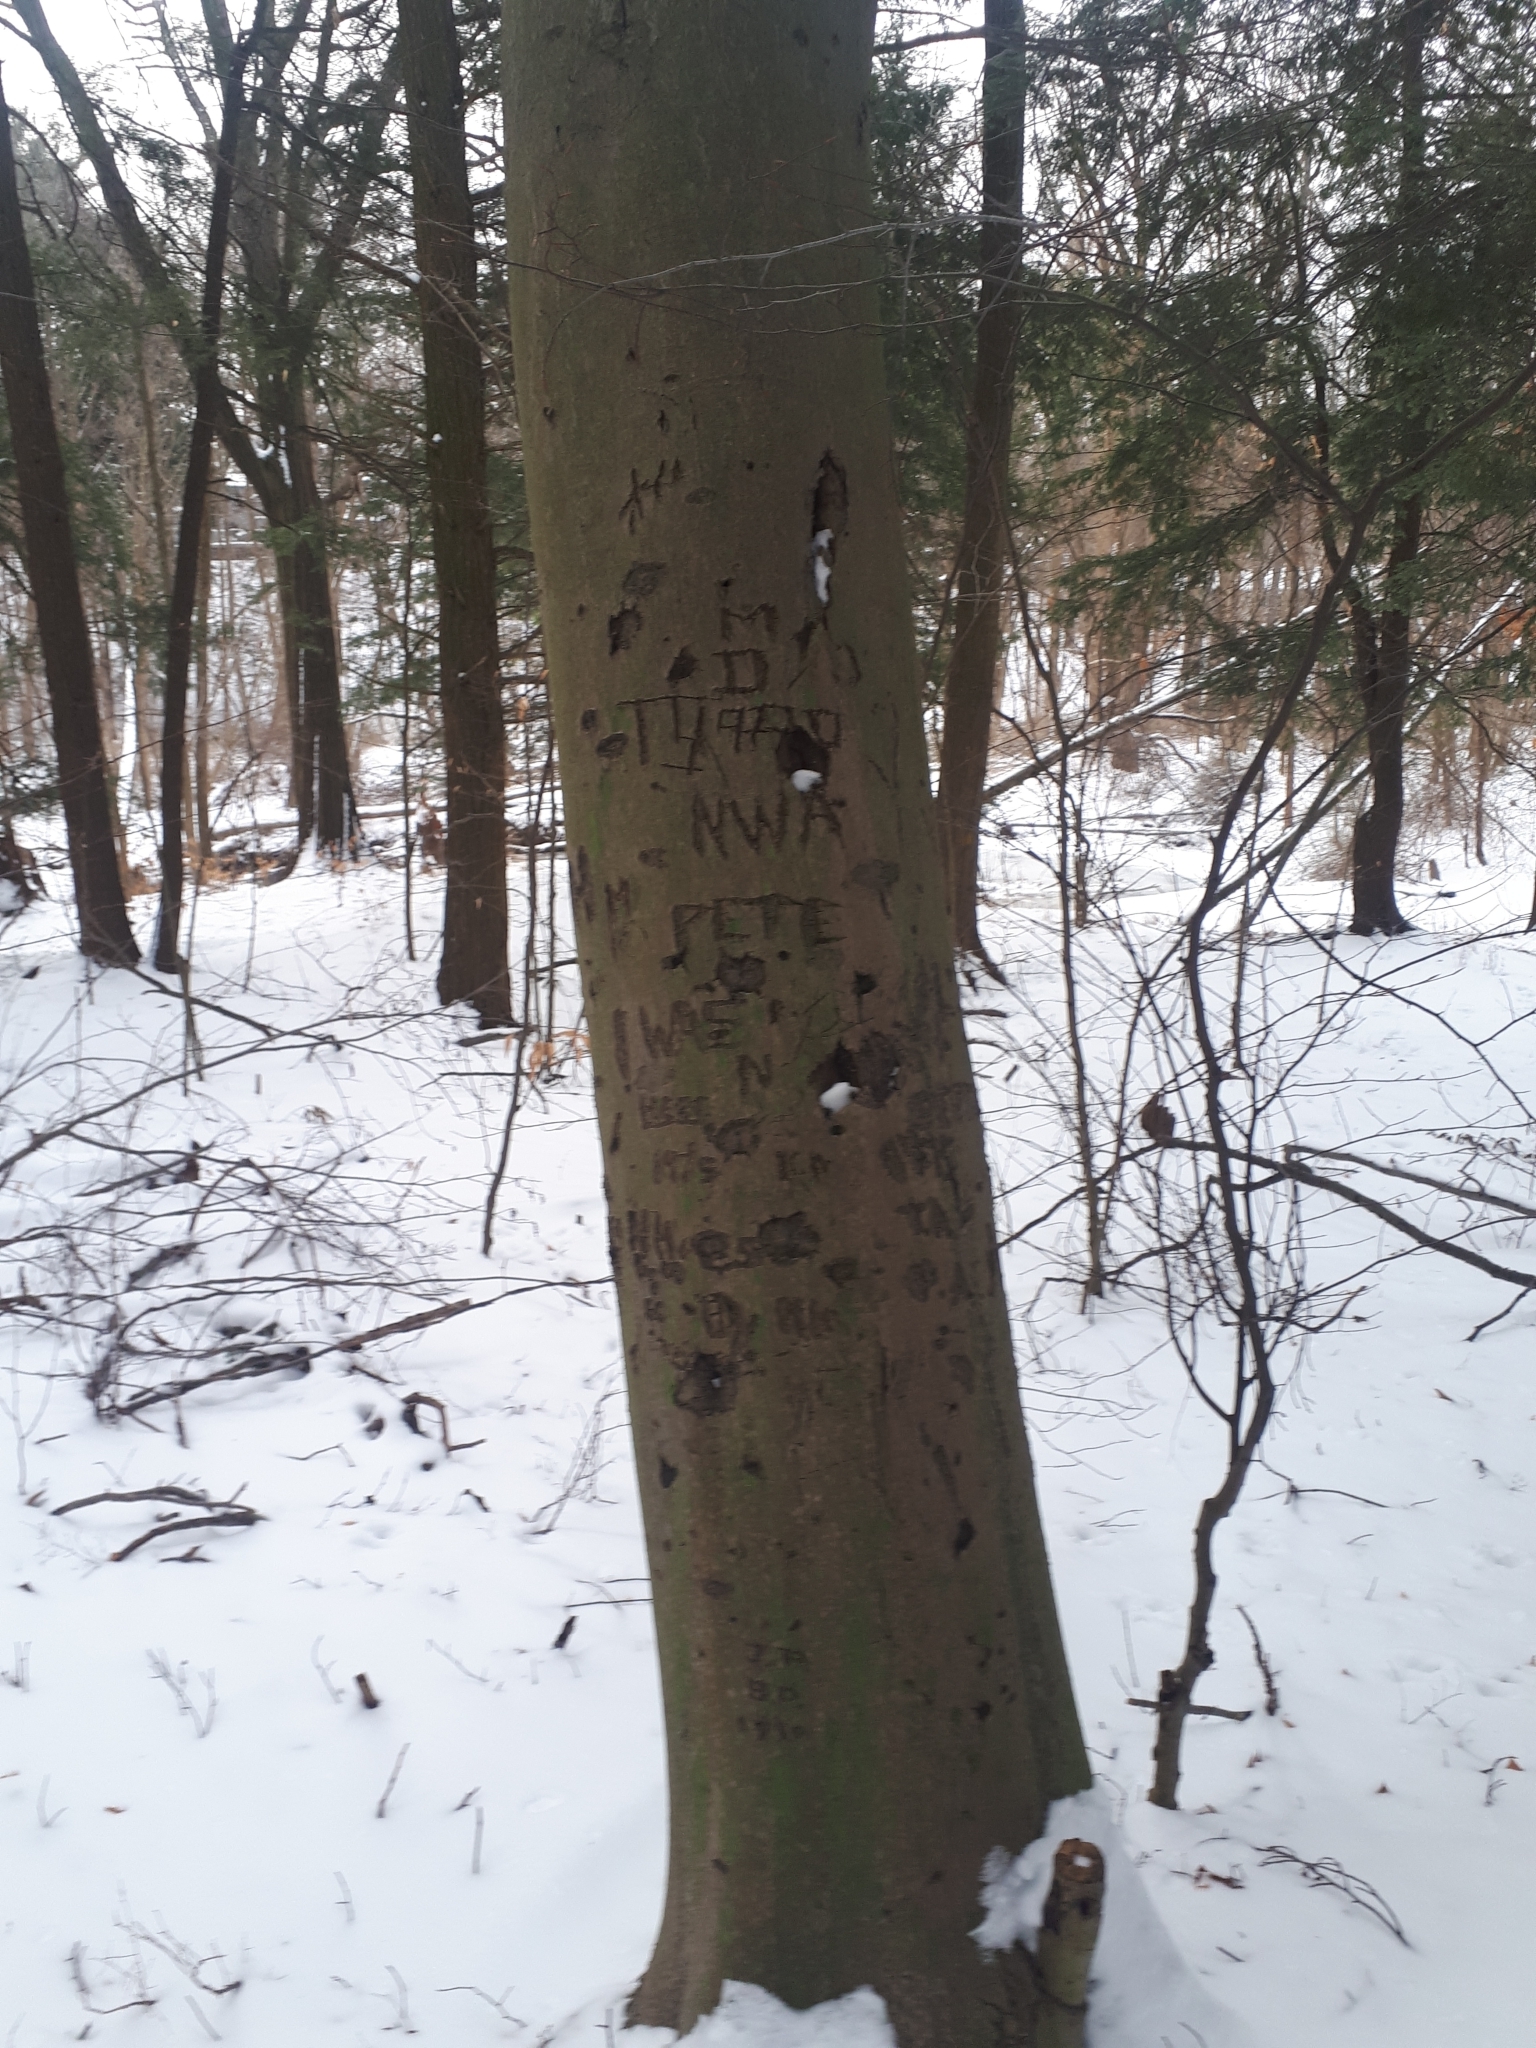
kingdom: Plantae
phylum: Tracheophyta
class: Magnoliopsida
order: Fagales
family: Fagaceae
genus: Fagus
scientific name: Fagus grandifolia
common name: American beech
